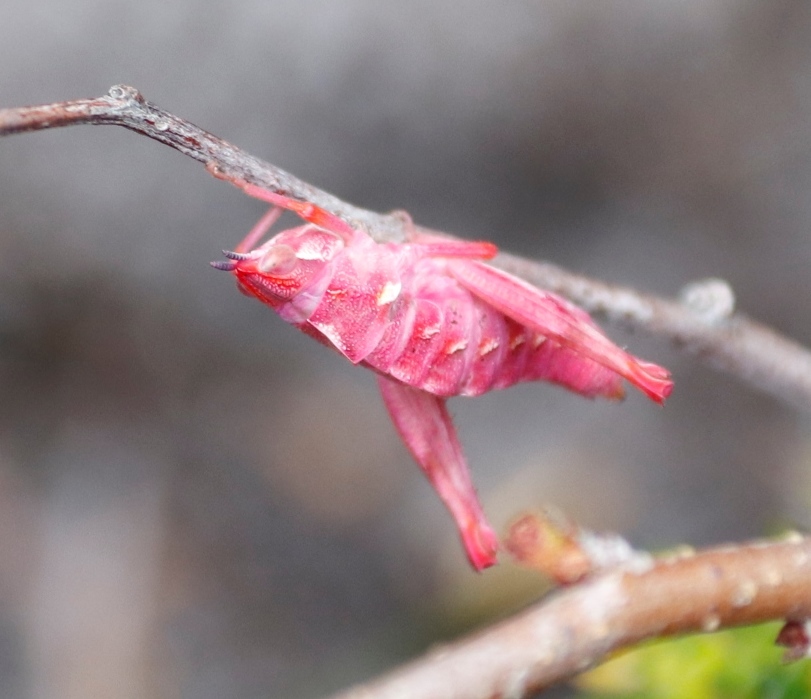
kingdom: Animalia
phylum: Arthropoda
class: Insecta
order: Orthoptera
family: Thericleidae
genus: Thericlesiella
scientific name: Thericlesiella meridionalis
